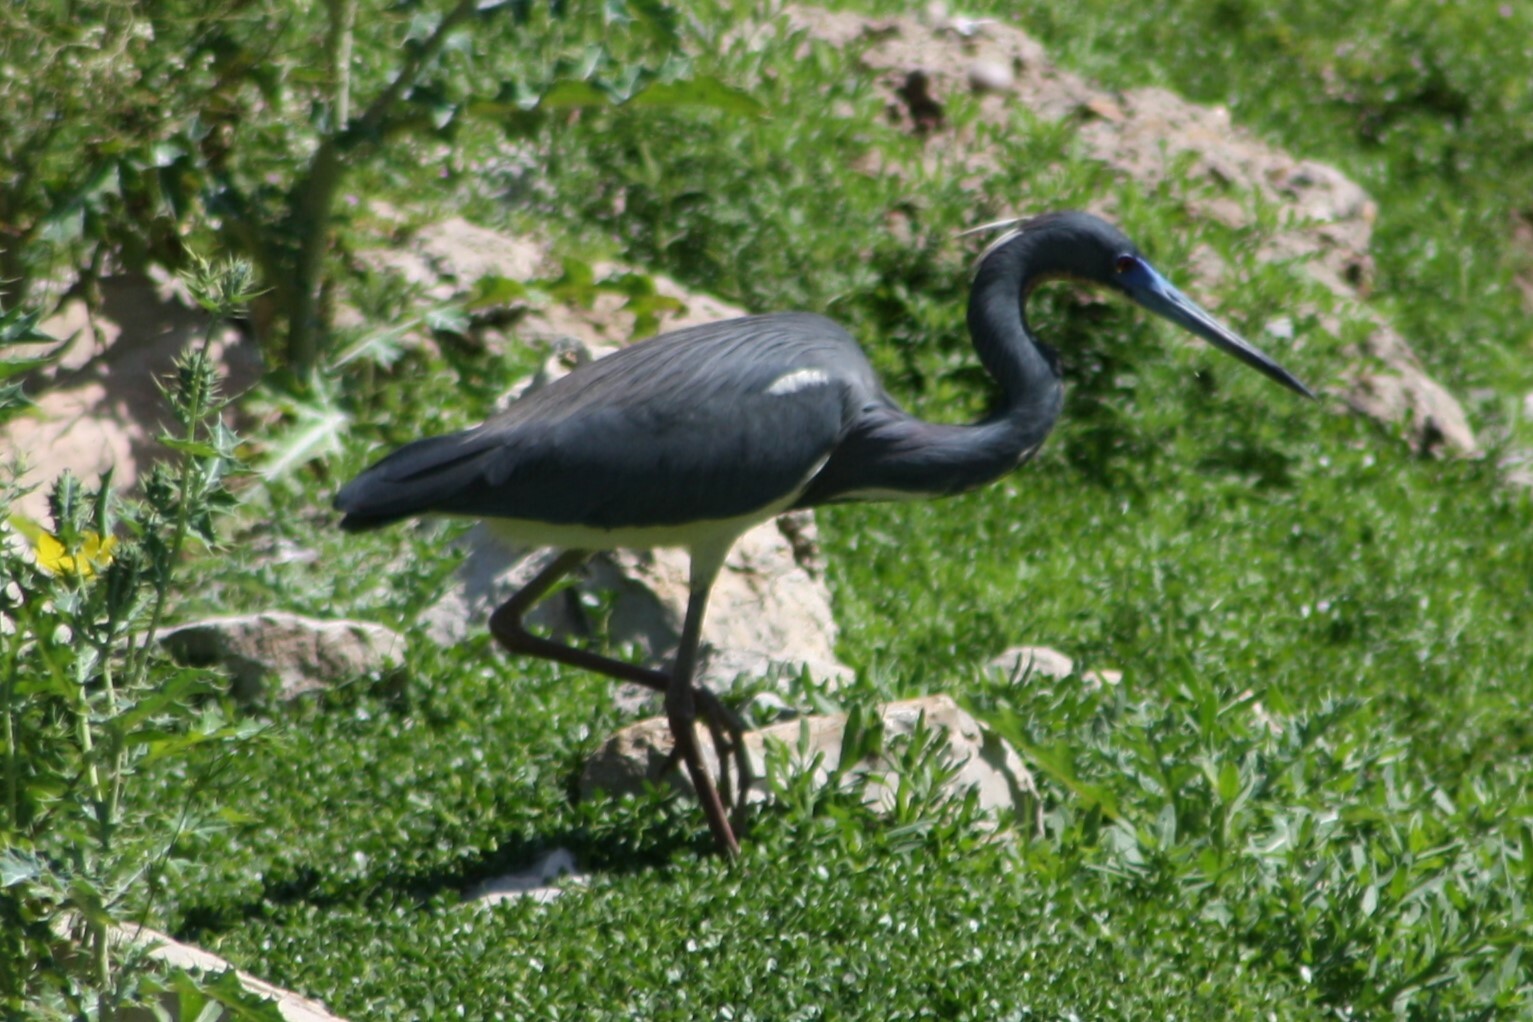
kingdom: Animalia
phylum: Chordata
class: Aves
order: Pelecaniformes
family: Ardeidae
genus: Egretta
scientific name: Egretta tricolor
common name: Tricolored heron
